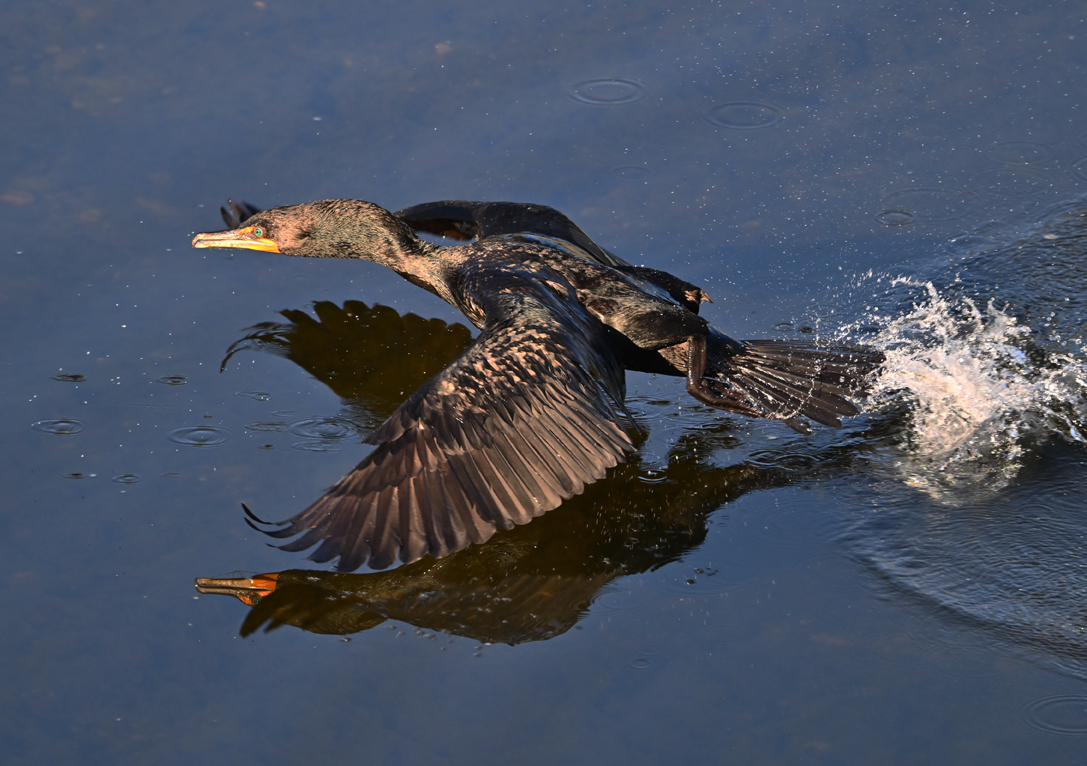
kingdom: Animalia
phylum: Chordata
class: Aves
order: Suliformes
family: Phalacrocoracidae
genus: Phalacrocorax
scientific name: Phalacrocorax auritus
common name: Double-crested cormorant
